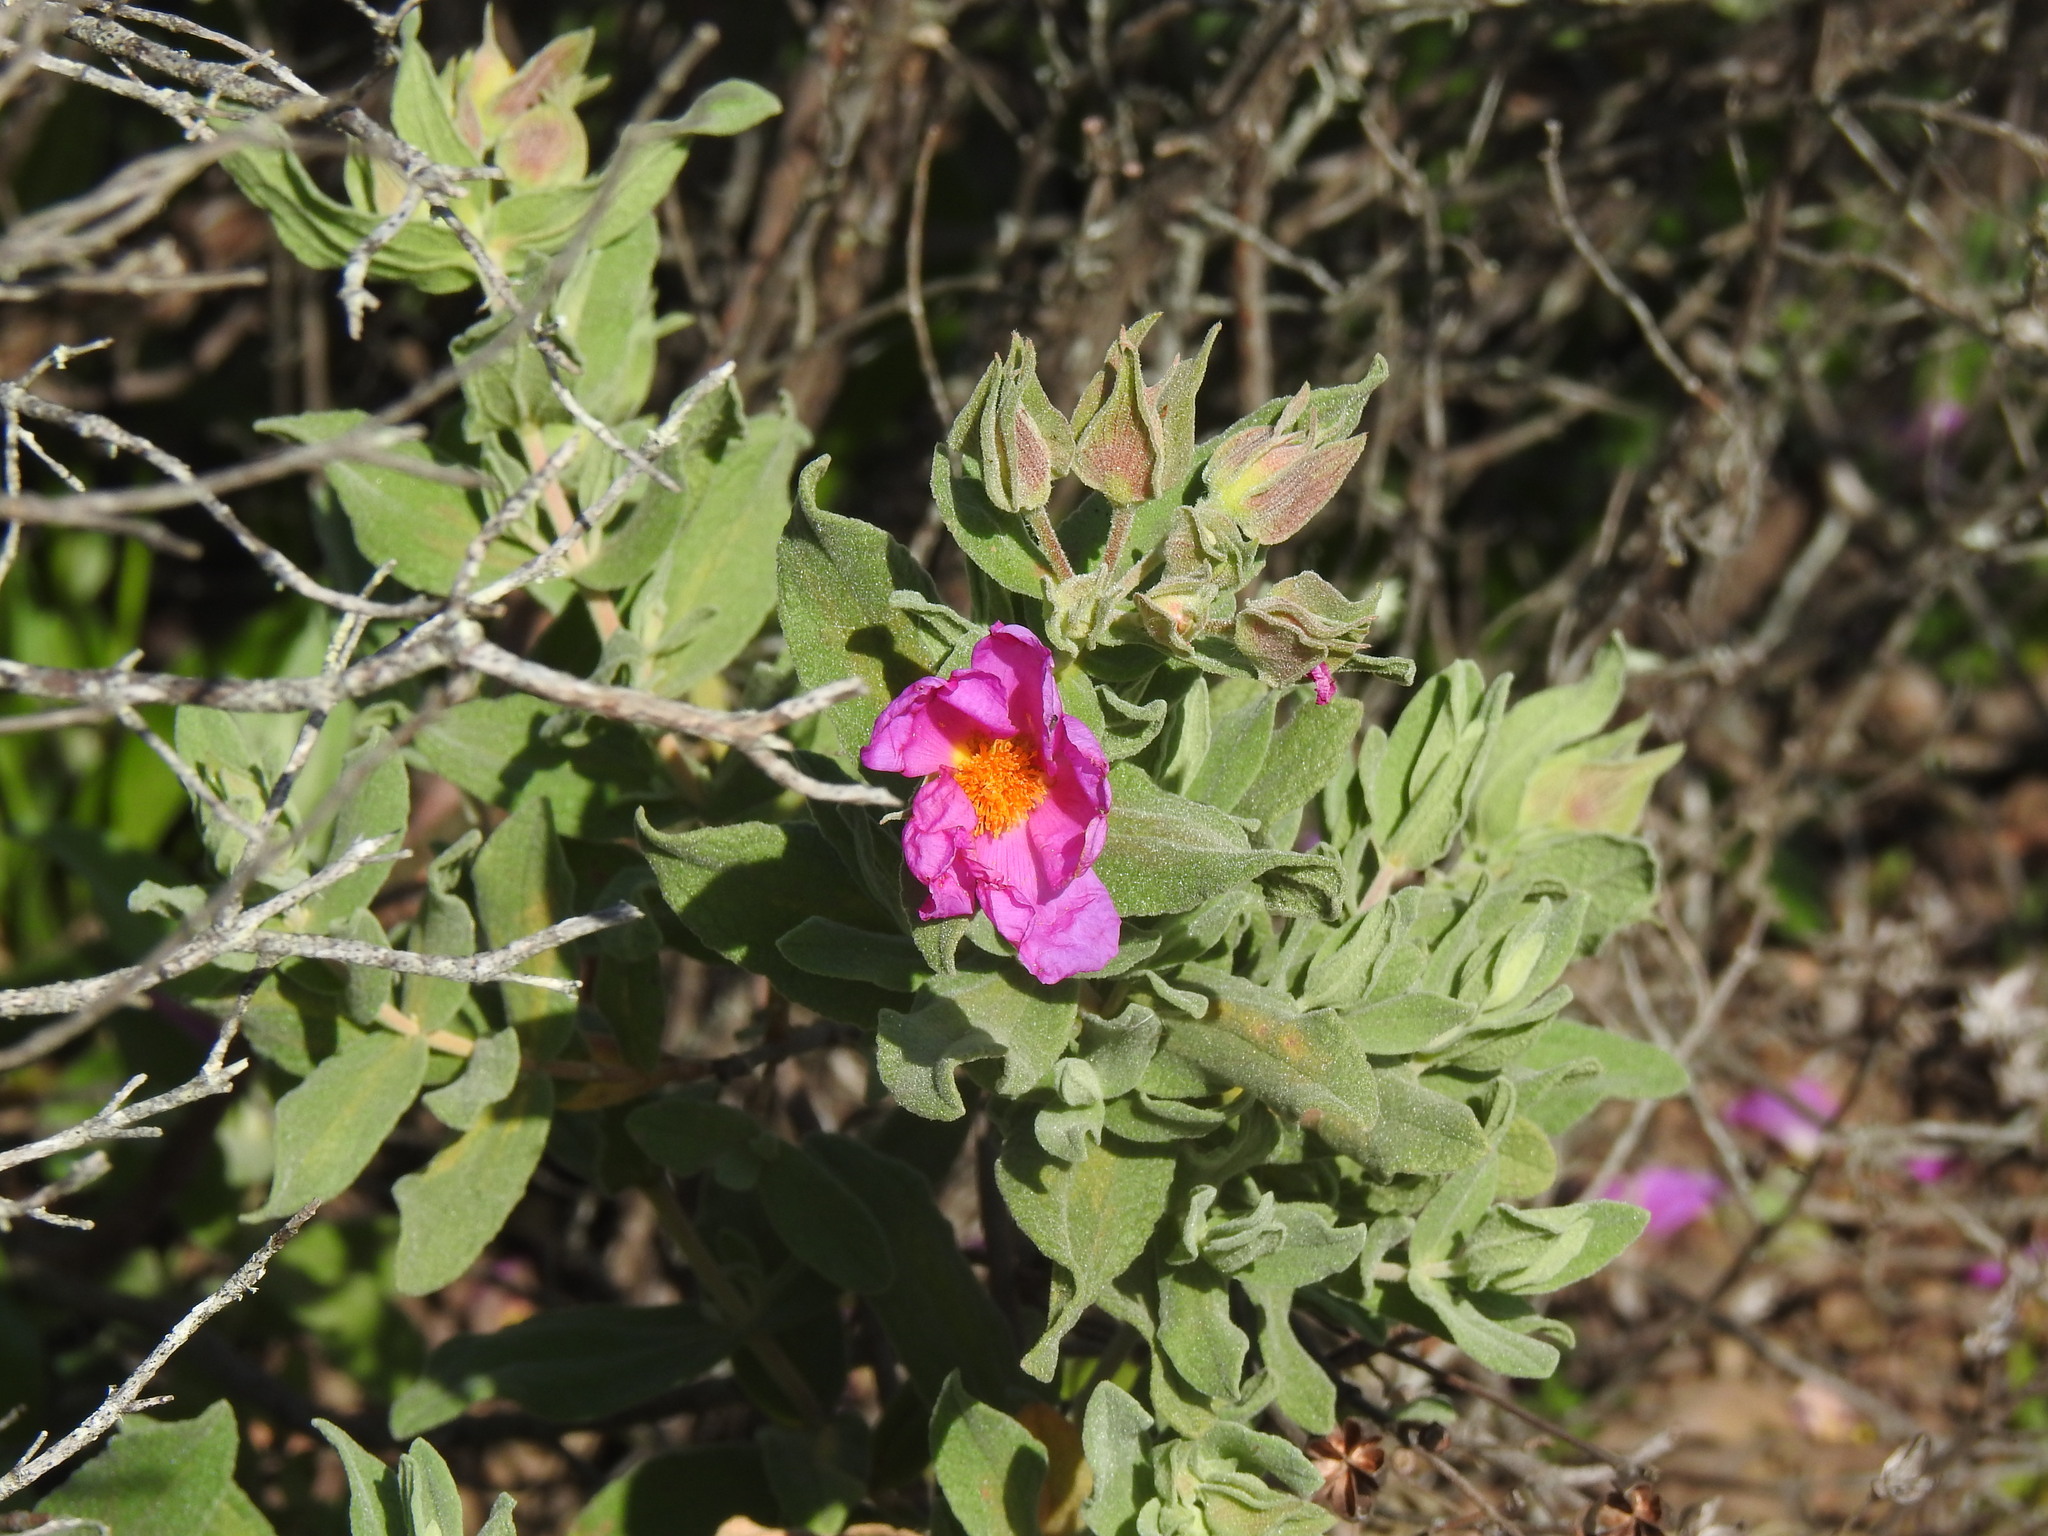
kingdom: Plantae
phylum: Tracheophyta
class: Magnoliopsida
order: Malvales
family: Cistaceae
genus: Cistus
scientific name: Cistus albidus
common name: White-leaf rock-rose
